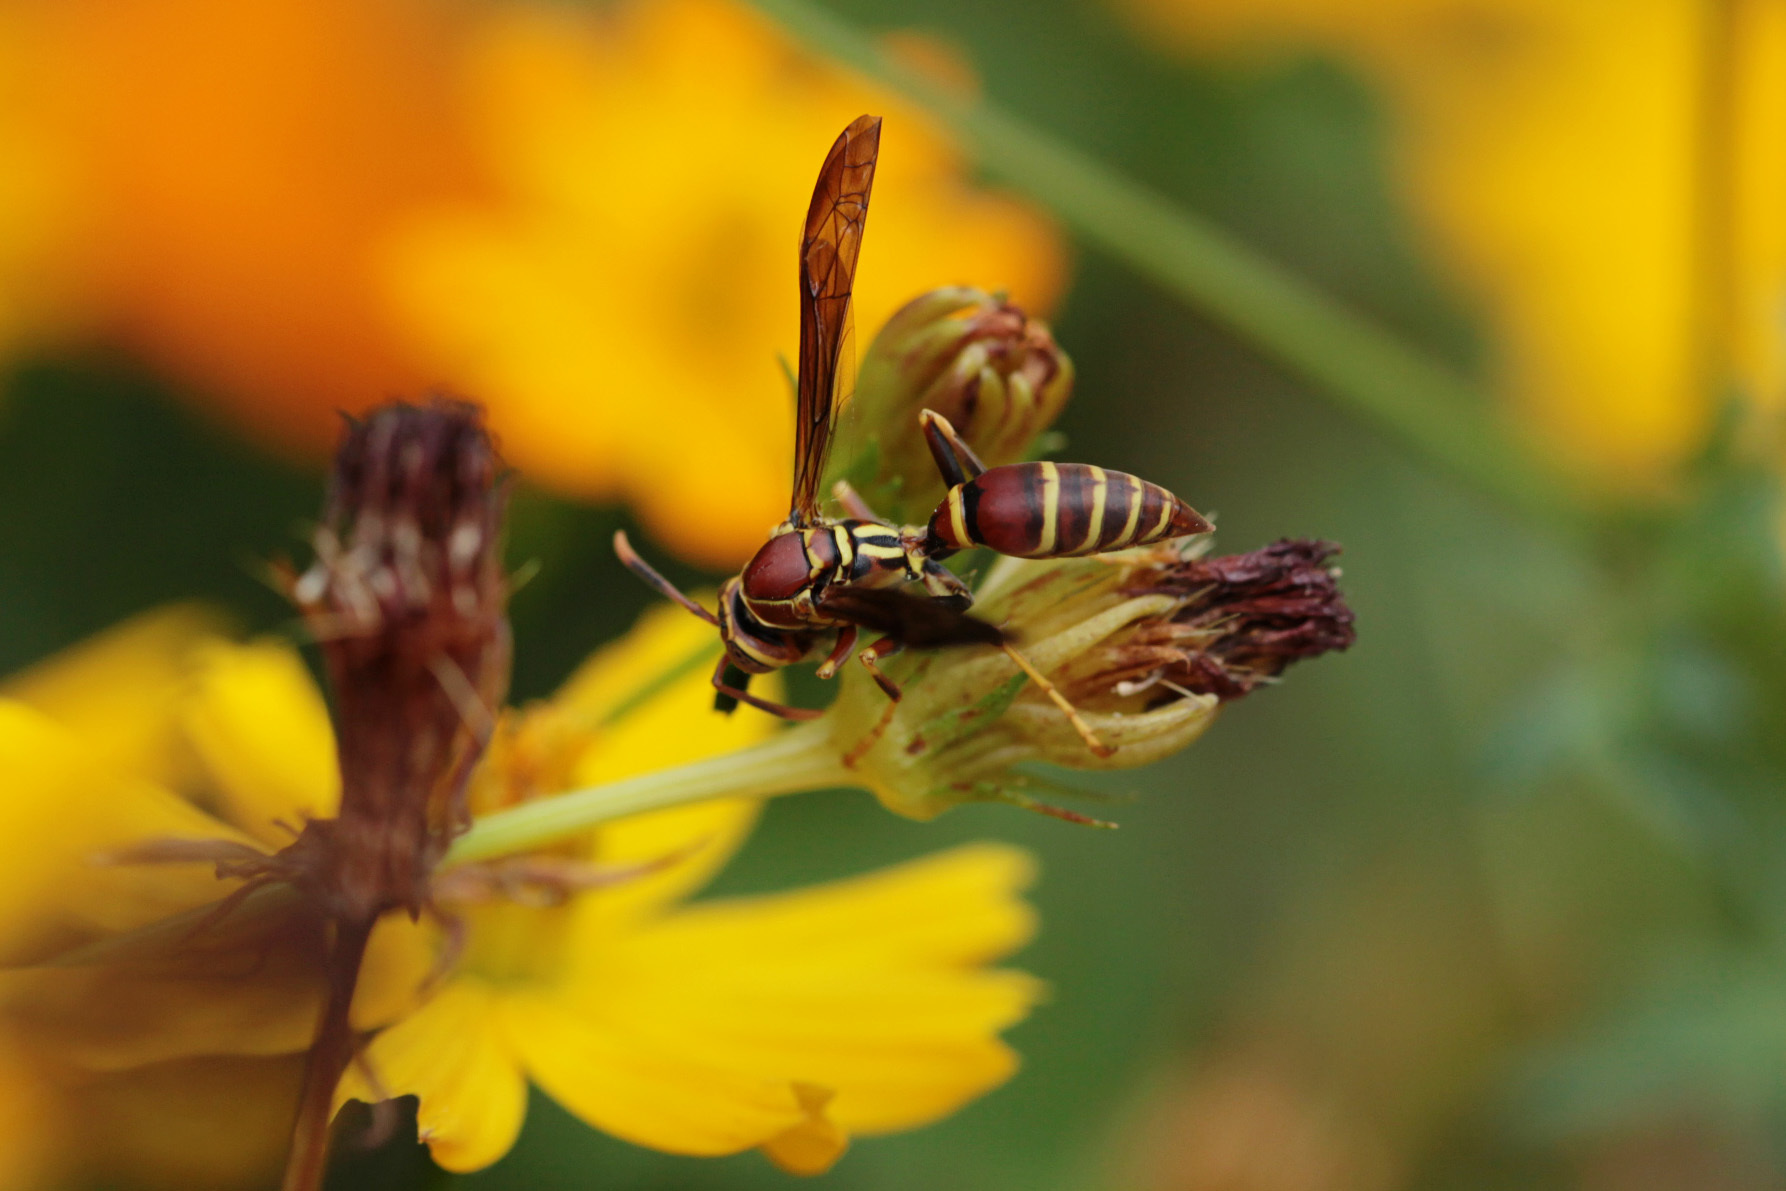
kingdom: Animalia
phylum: Arthropoda
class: Insecta
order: Hymenoptera
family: Eumenidae
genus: Polistes
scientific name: Polistes exclamans
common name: Paper wasp
